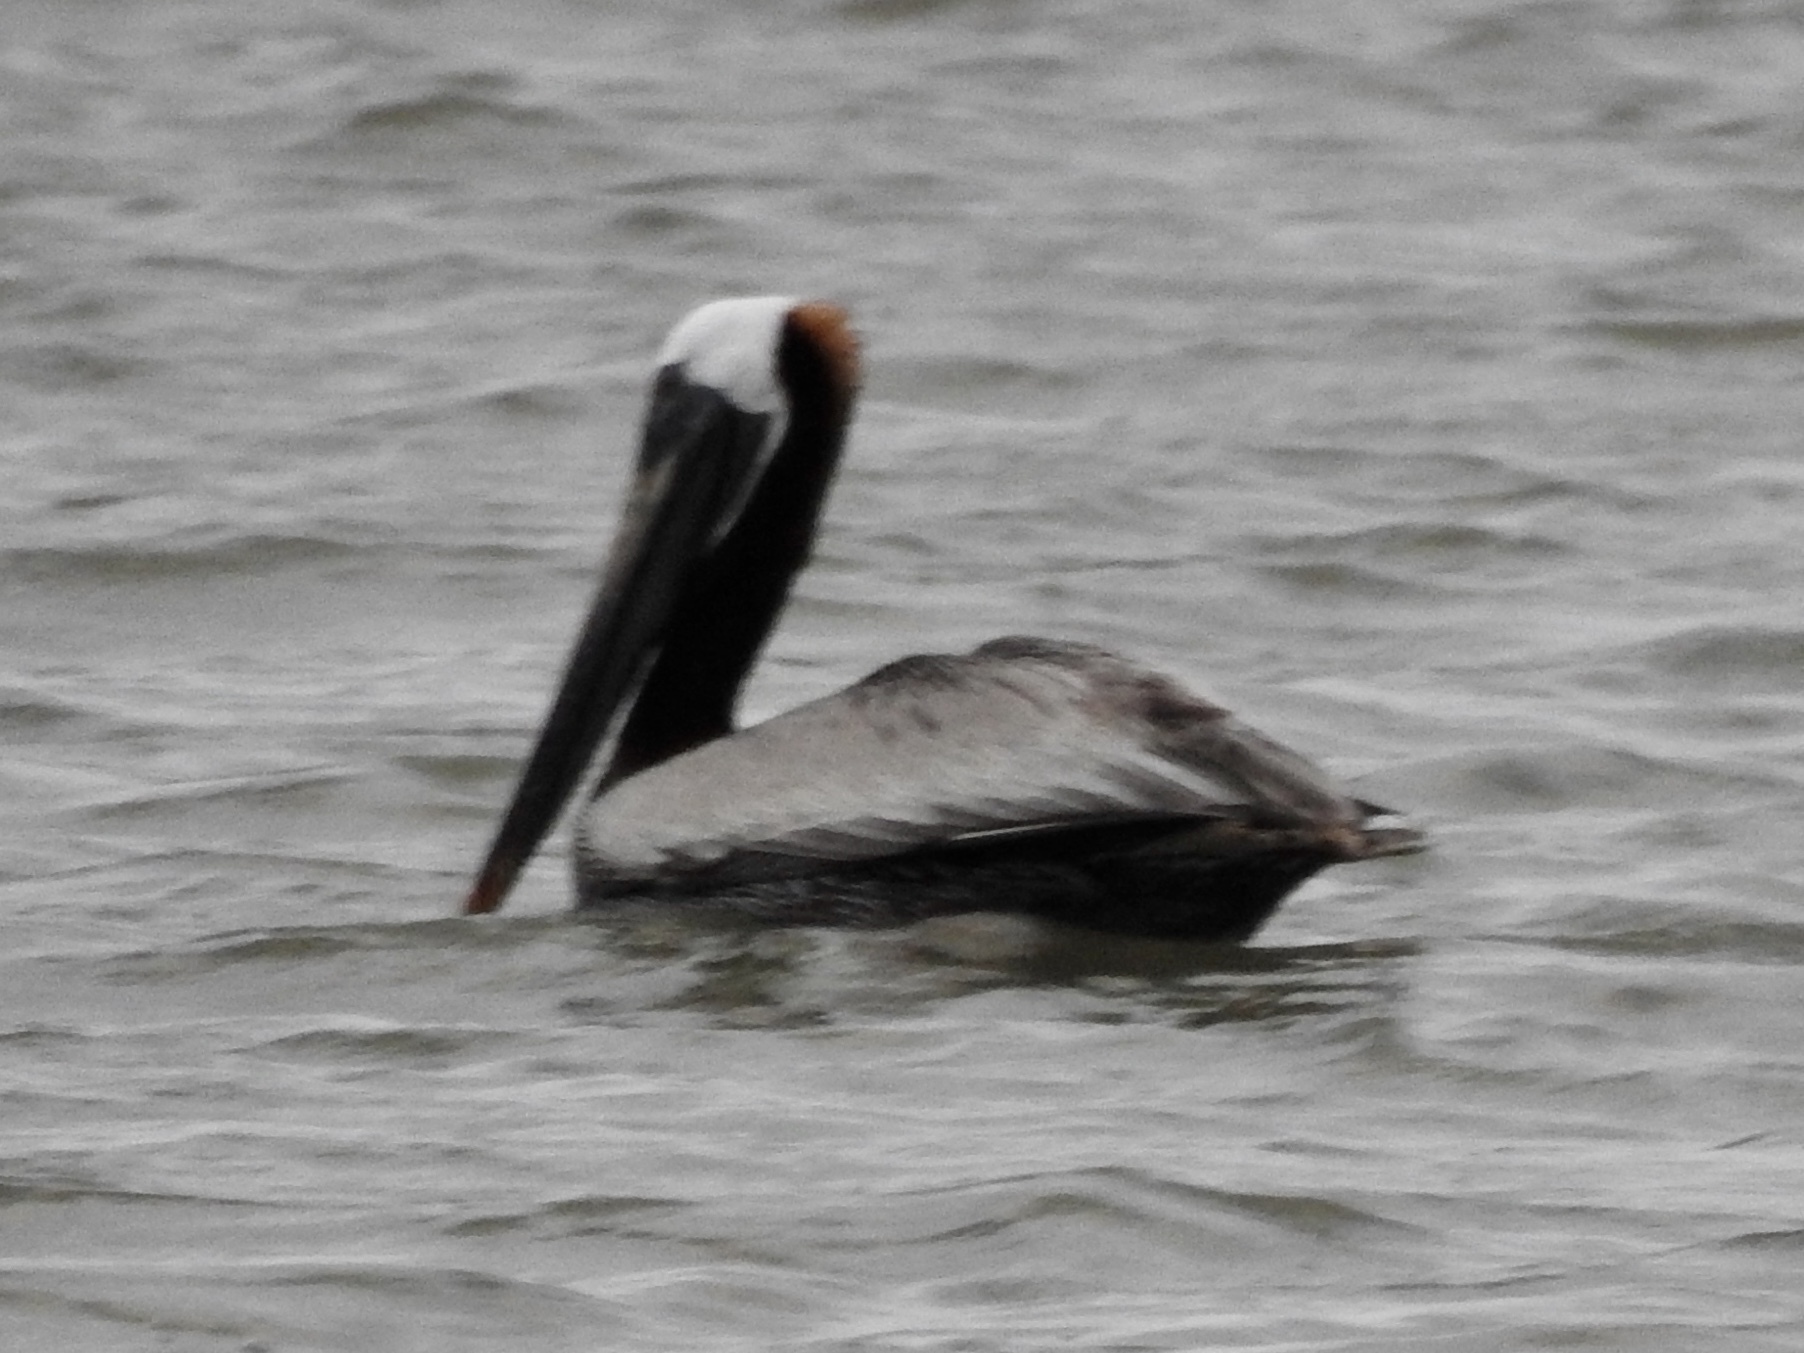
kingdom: Animalia
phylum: Chordata
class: Aves
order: Pelecaniformes
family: Pelecanidae
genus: Pelecanus
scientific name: Pelecanus occidentalis
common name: Brown pelican
